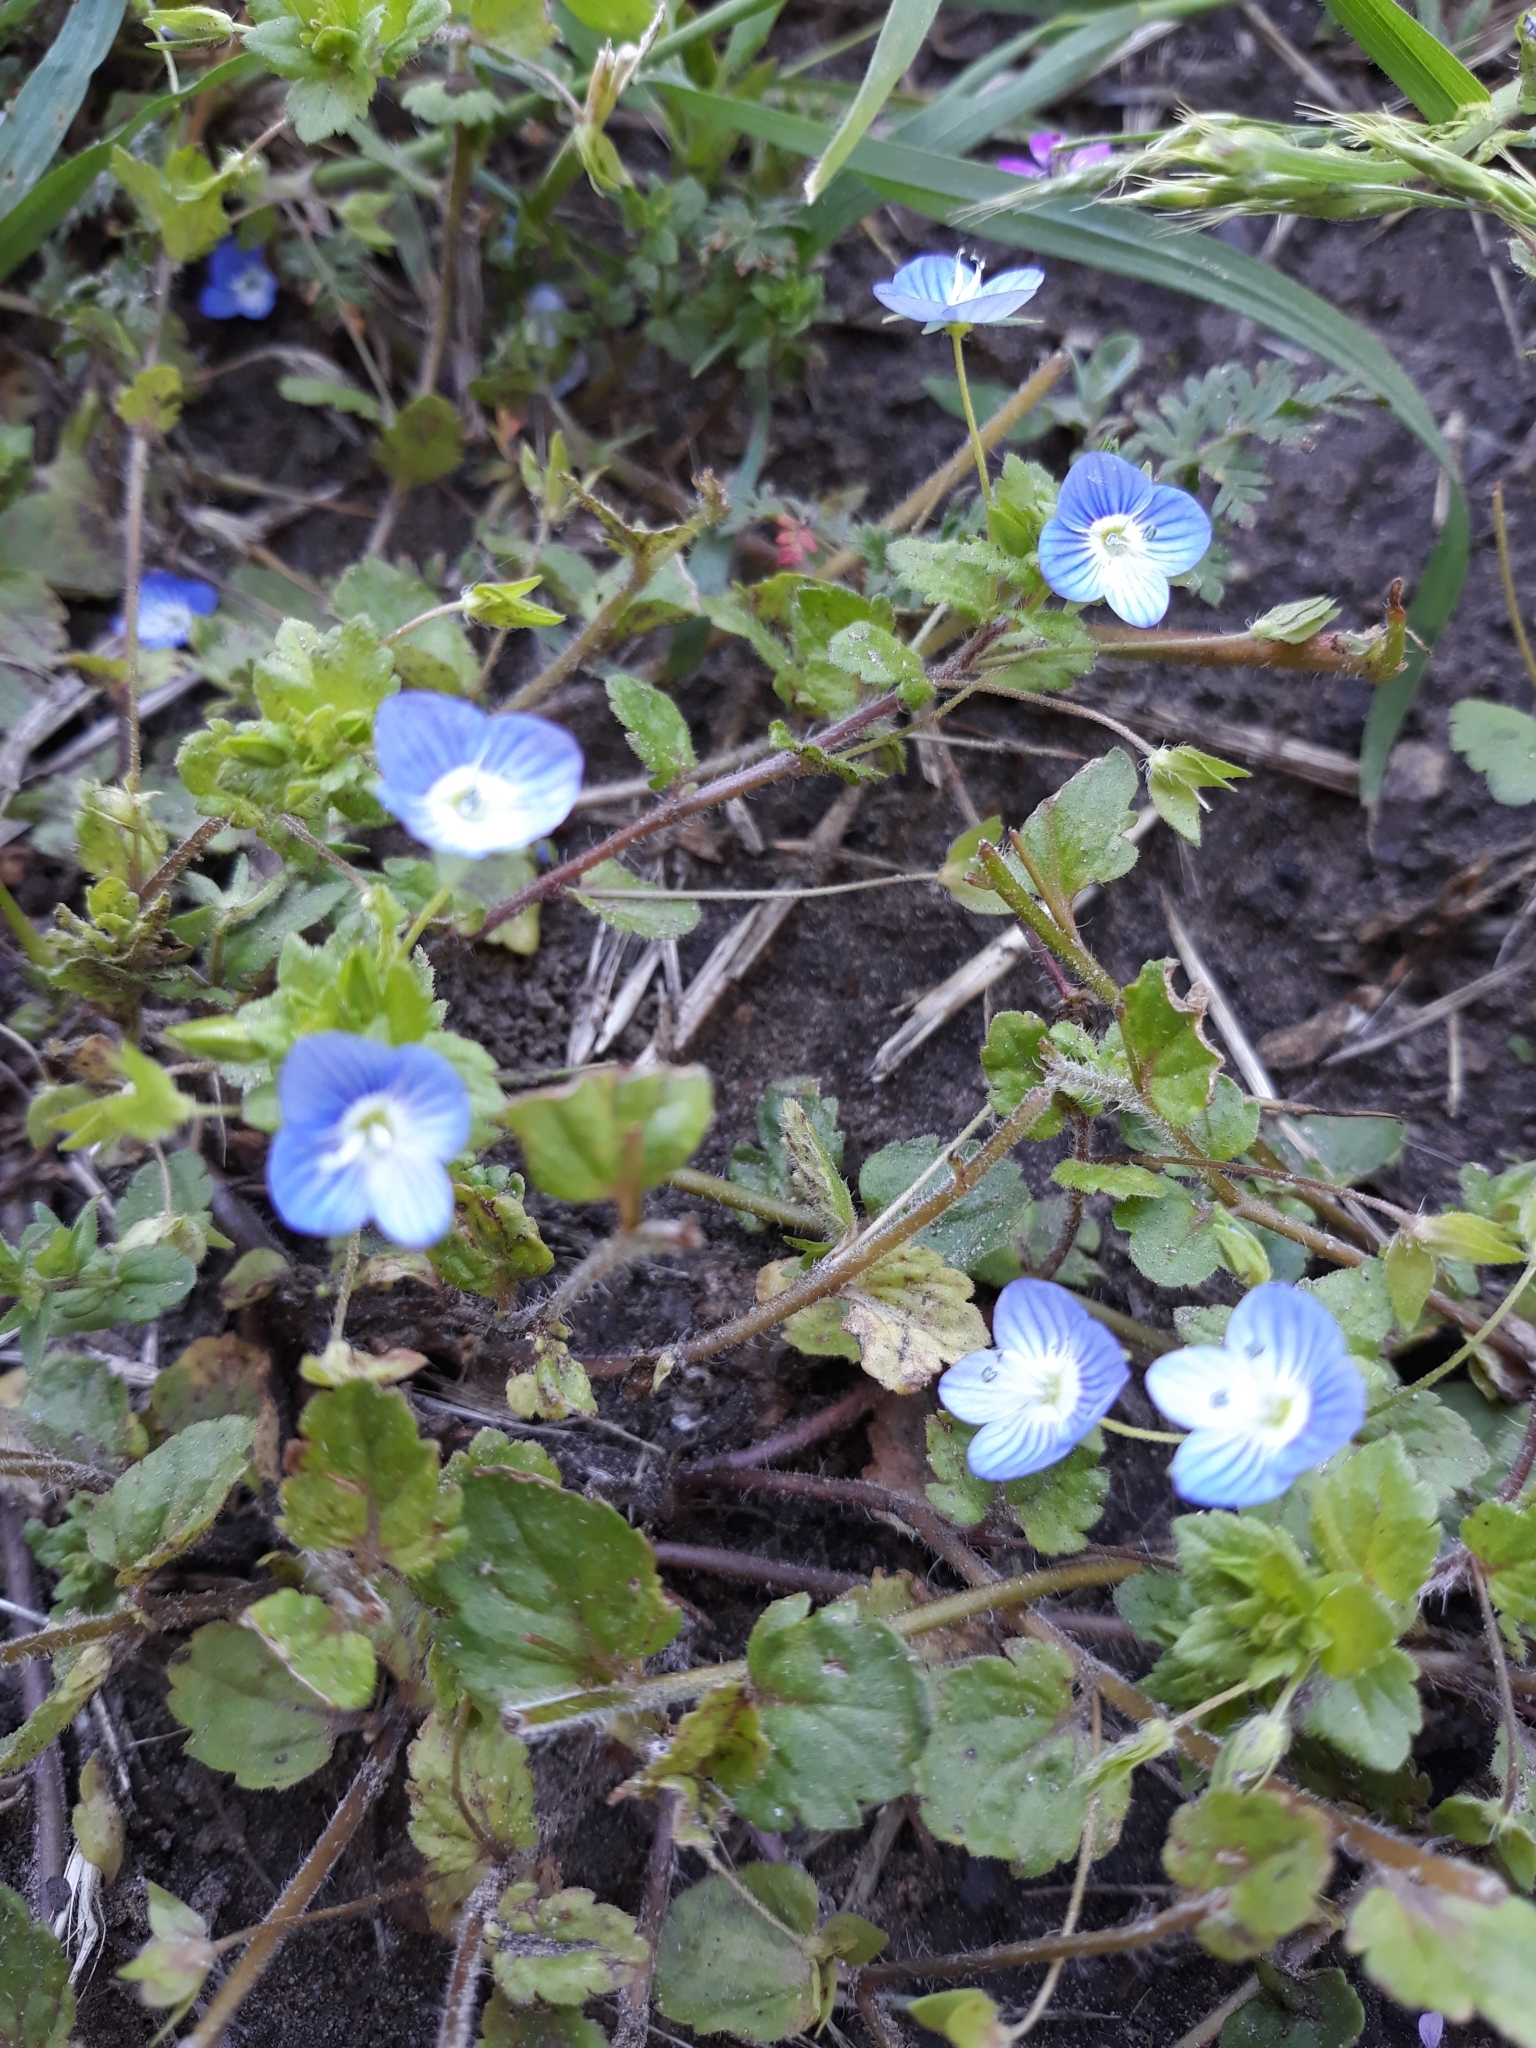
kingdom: Plantae
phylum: Tracheophyta
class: Magnoliopsida
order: Lamiales
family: Plantaginaceae
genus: Veronica
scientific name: Veronica persica
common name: Common field-speedwell
